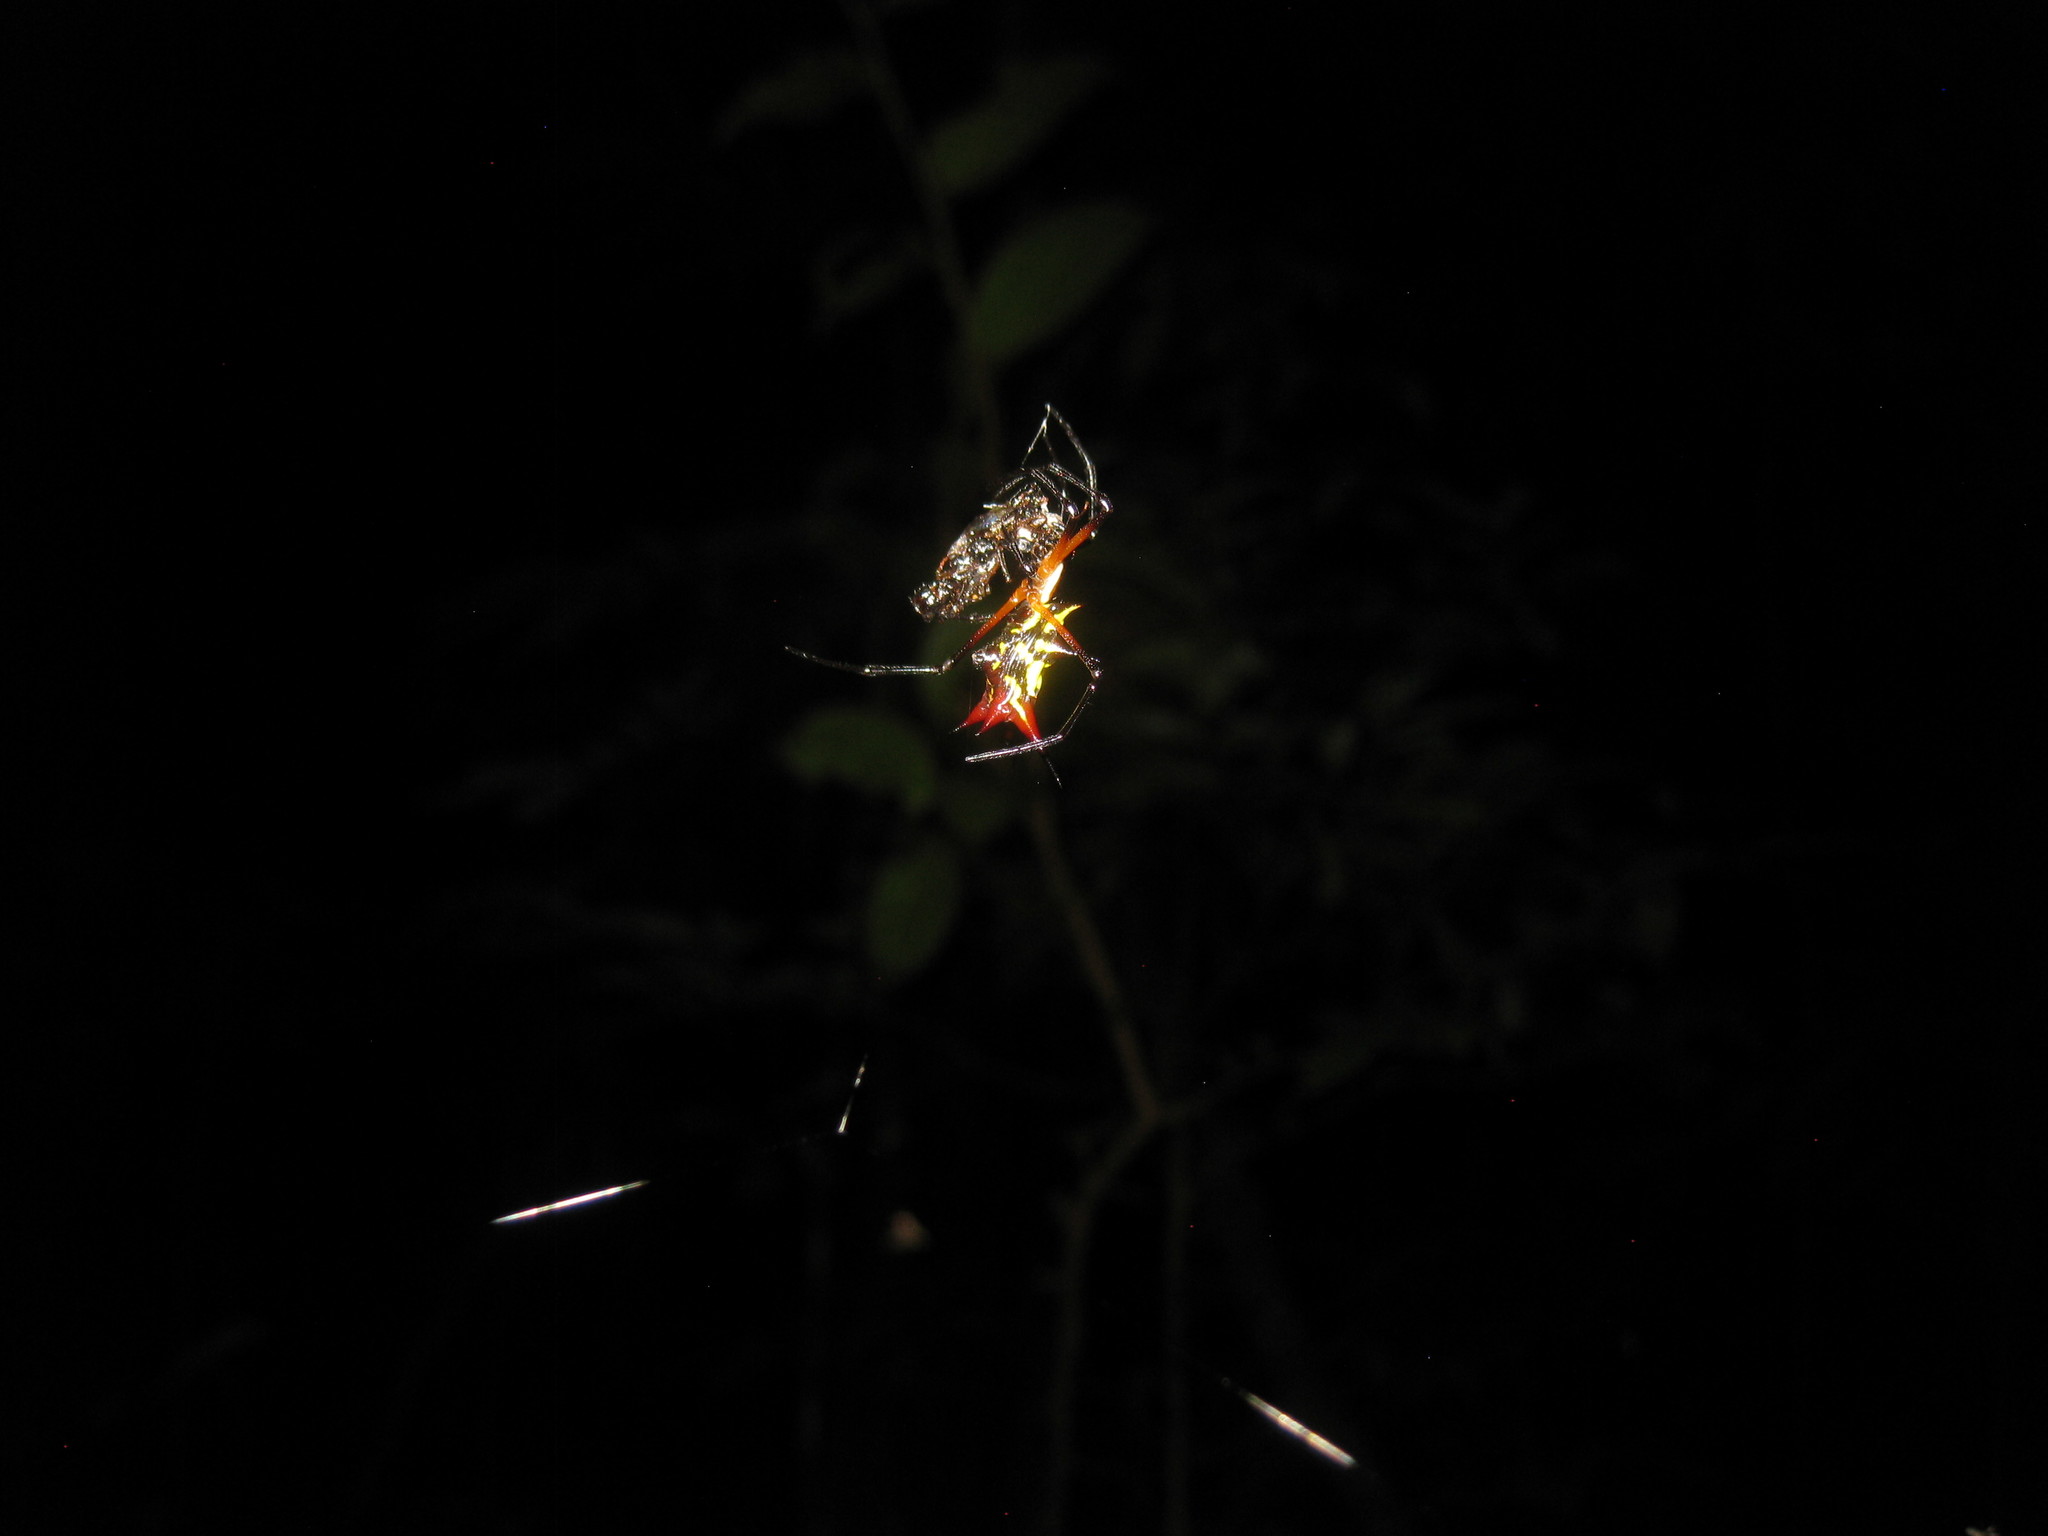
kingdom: Animalia
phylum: Arthropoda
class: Arachnida
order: Araneae
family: Araneidae
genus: Micrathena
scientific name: Micrathena kirbyi
